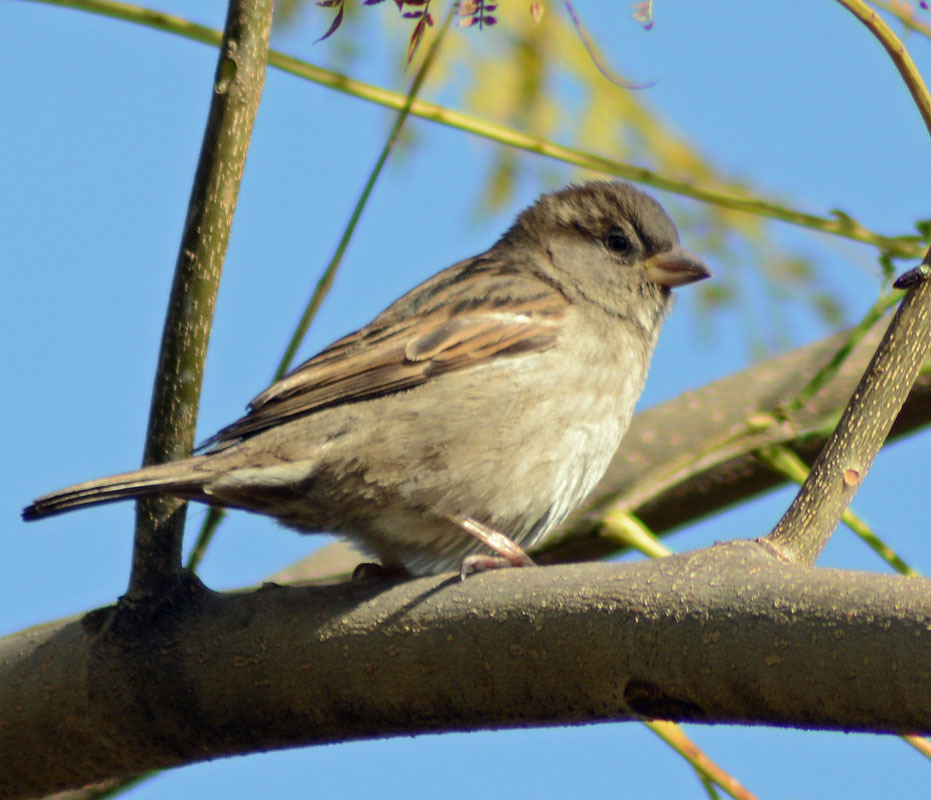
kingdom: Animalia
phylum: Chordata
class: Aves
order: Passeriformes
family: Passeridae
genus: Passer
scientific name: Passer domesticus
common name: House sparrow
